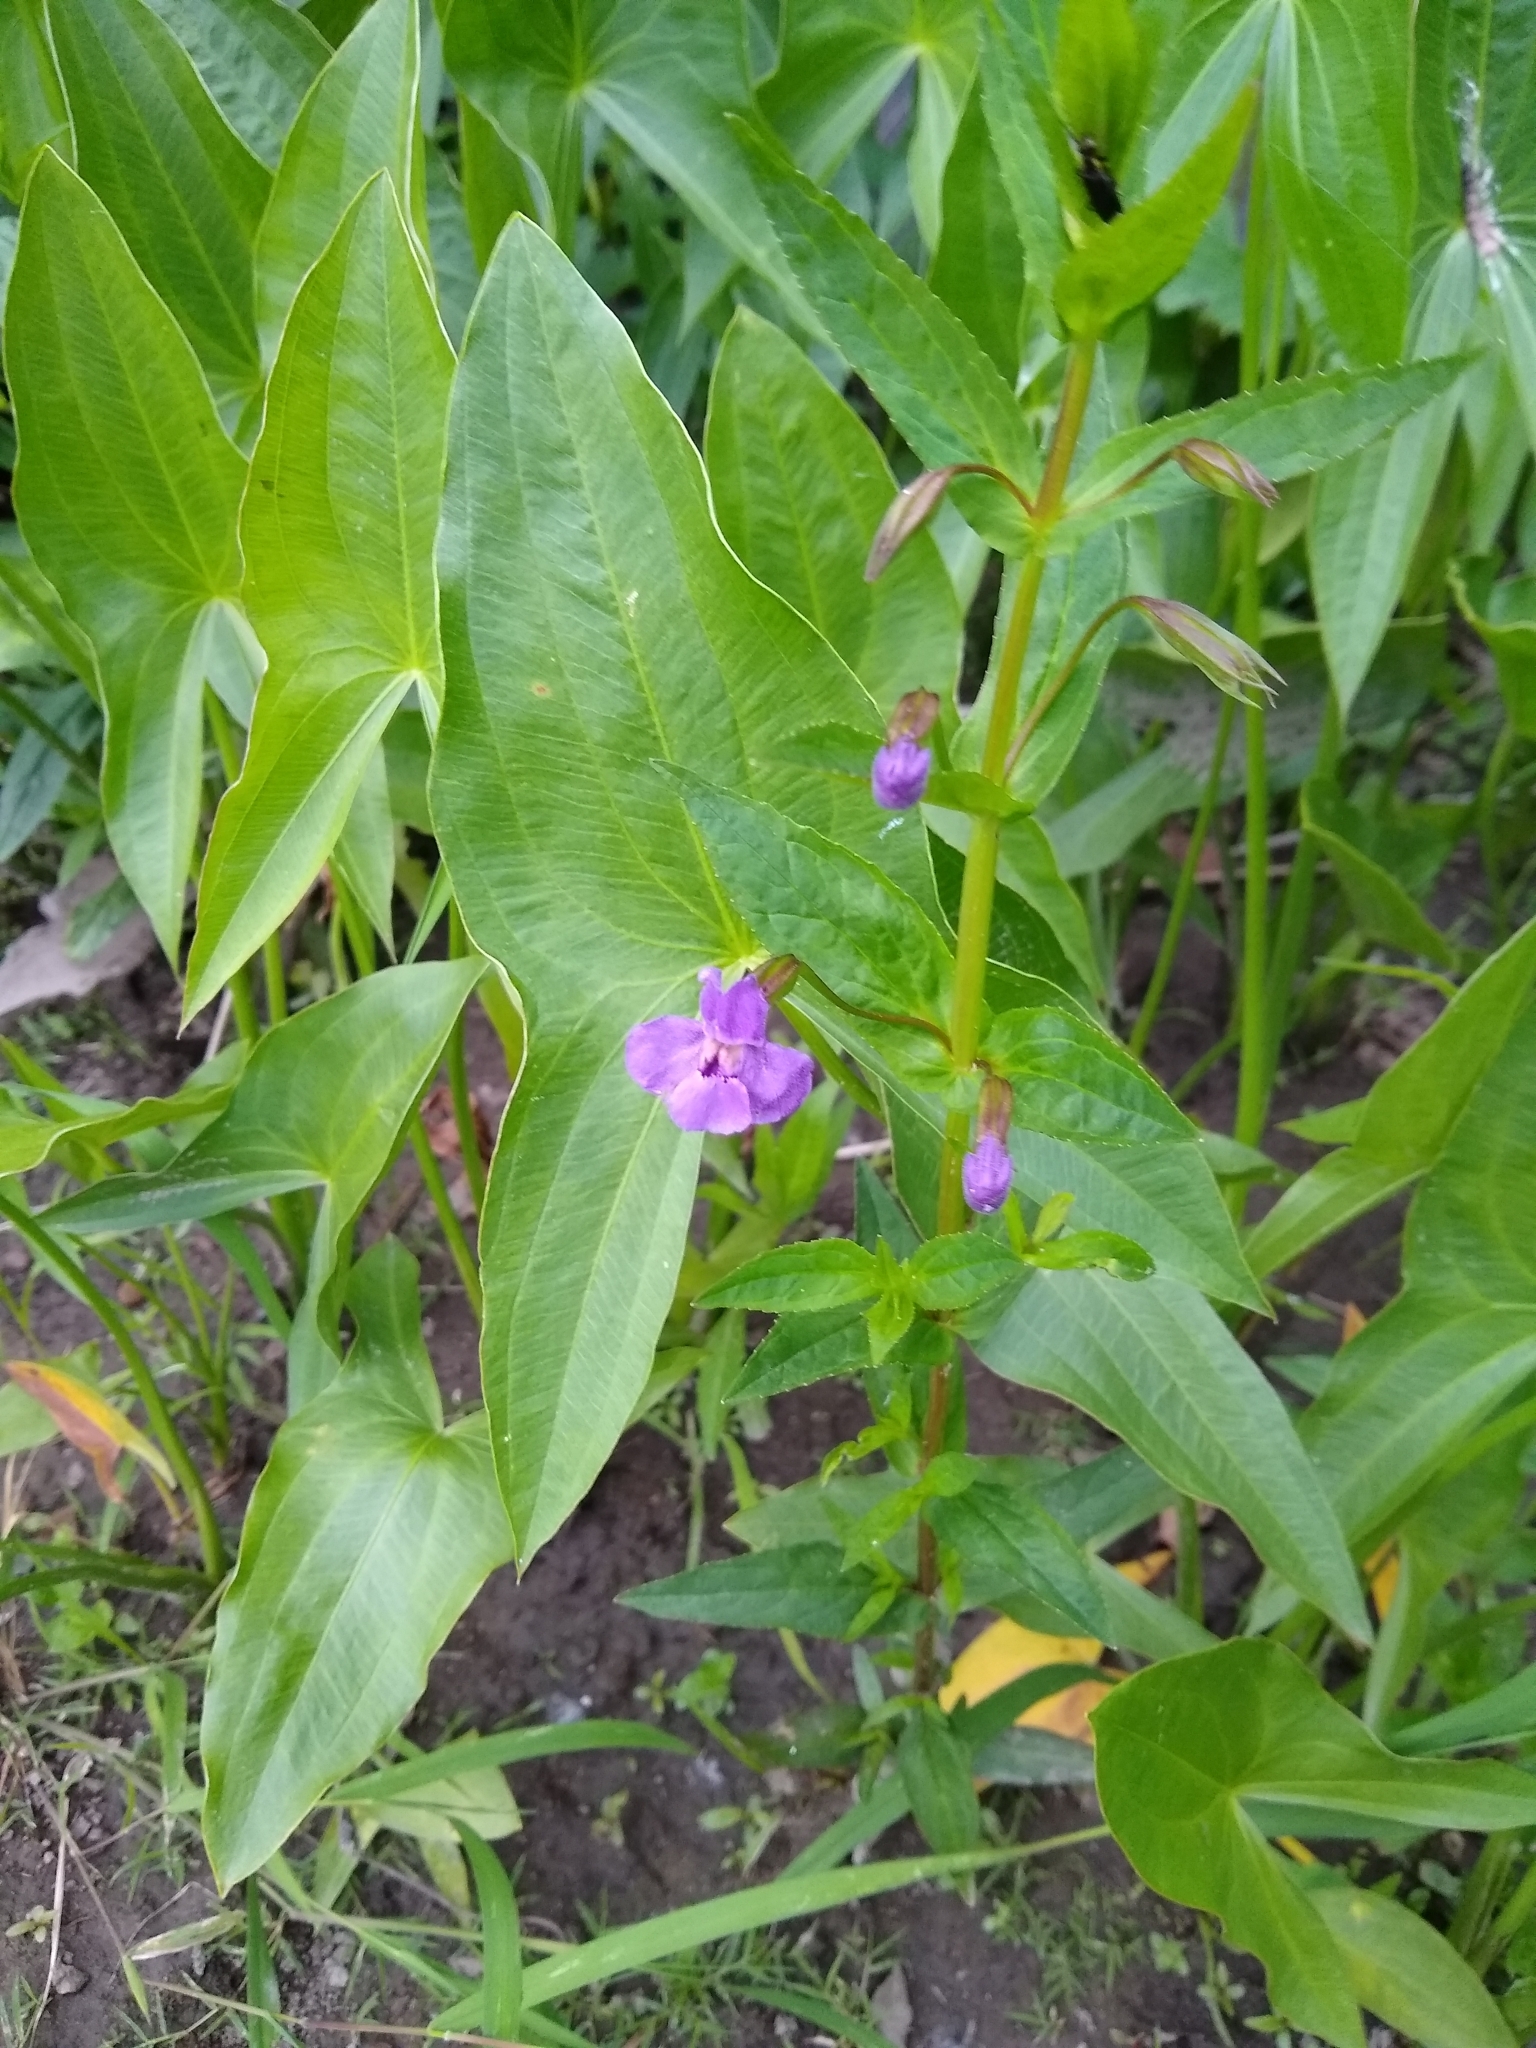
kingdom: Plantae
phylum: Tracheophyta
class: Liliopsida
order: Alismatales
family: Alismataceae
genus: Sagittaria
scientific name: Sagittaria latifolia
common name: Duck-potato
